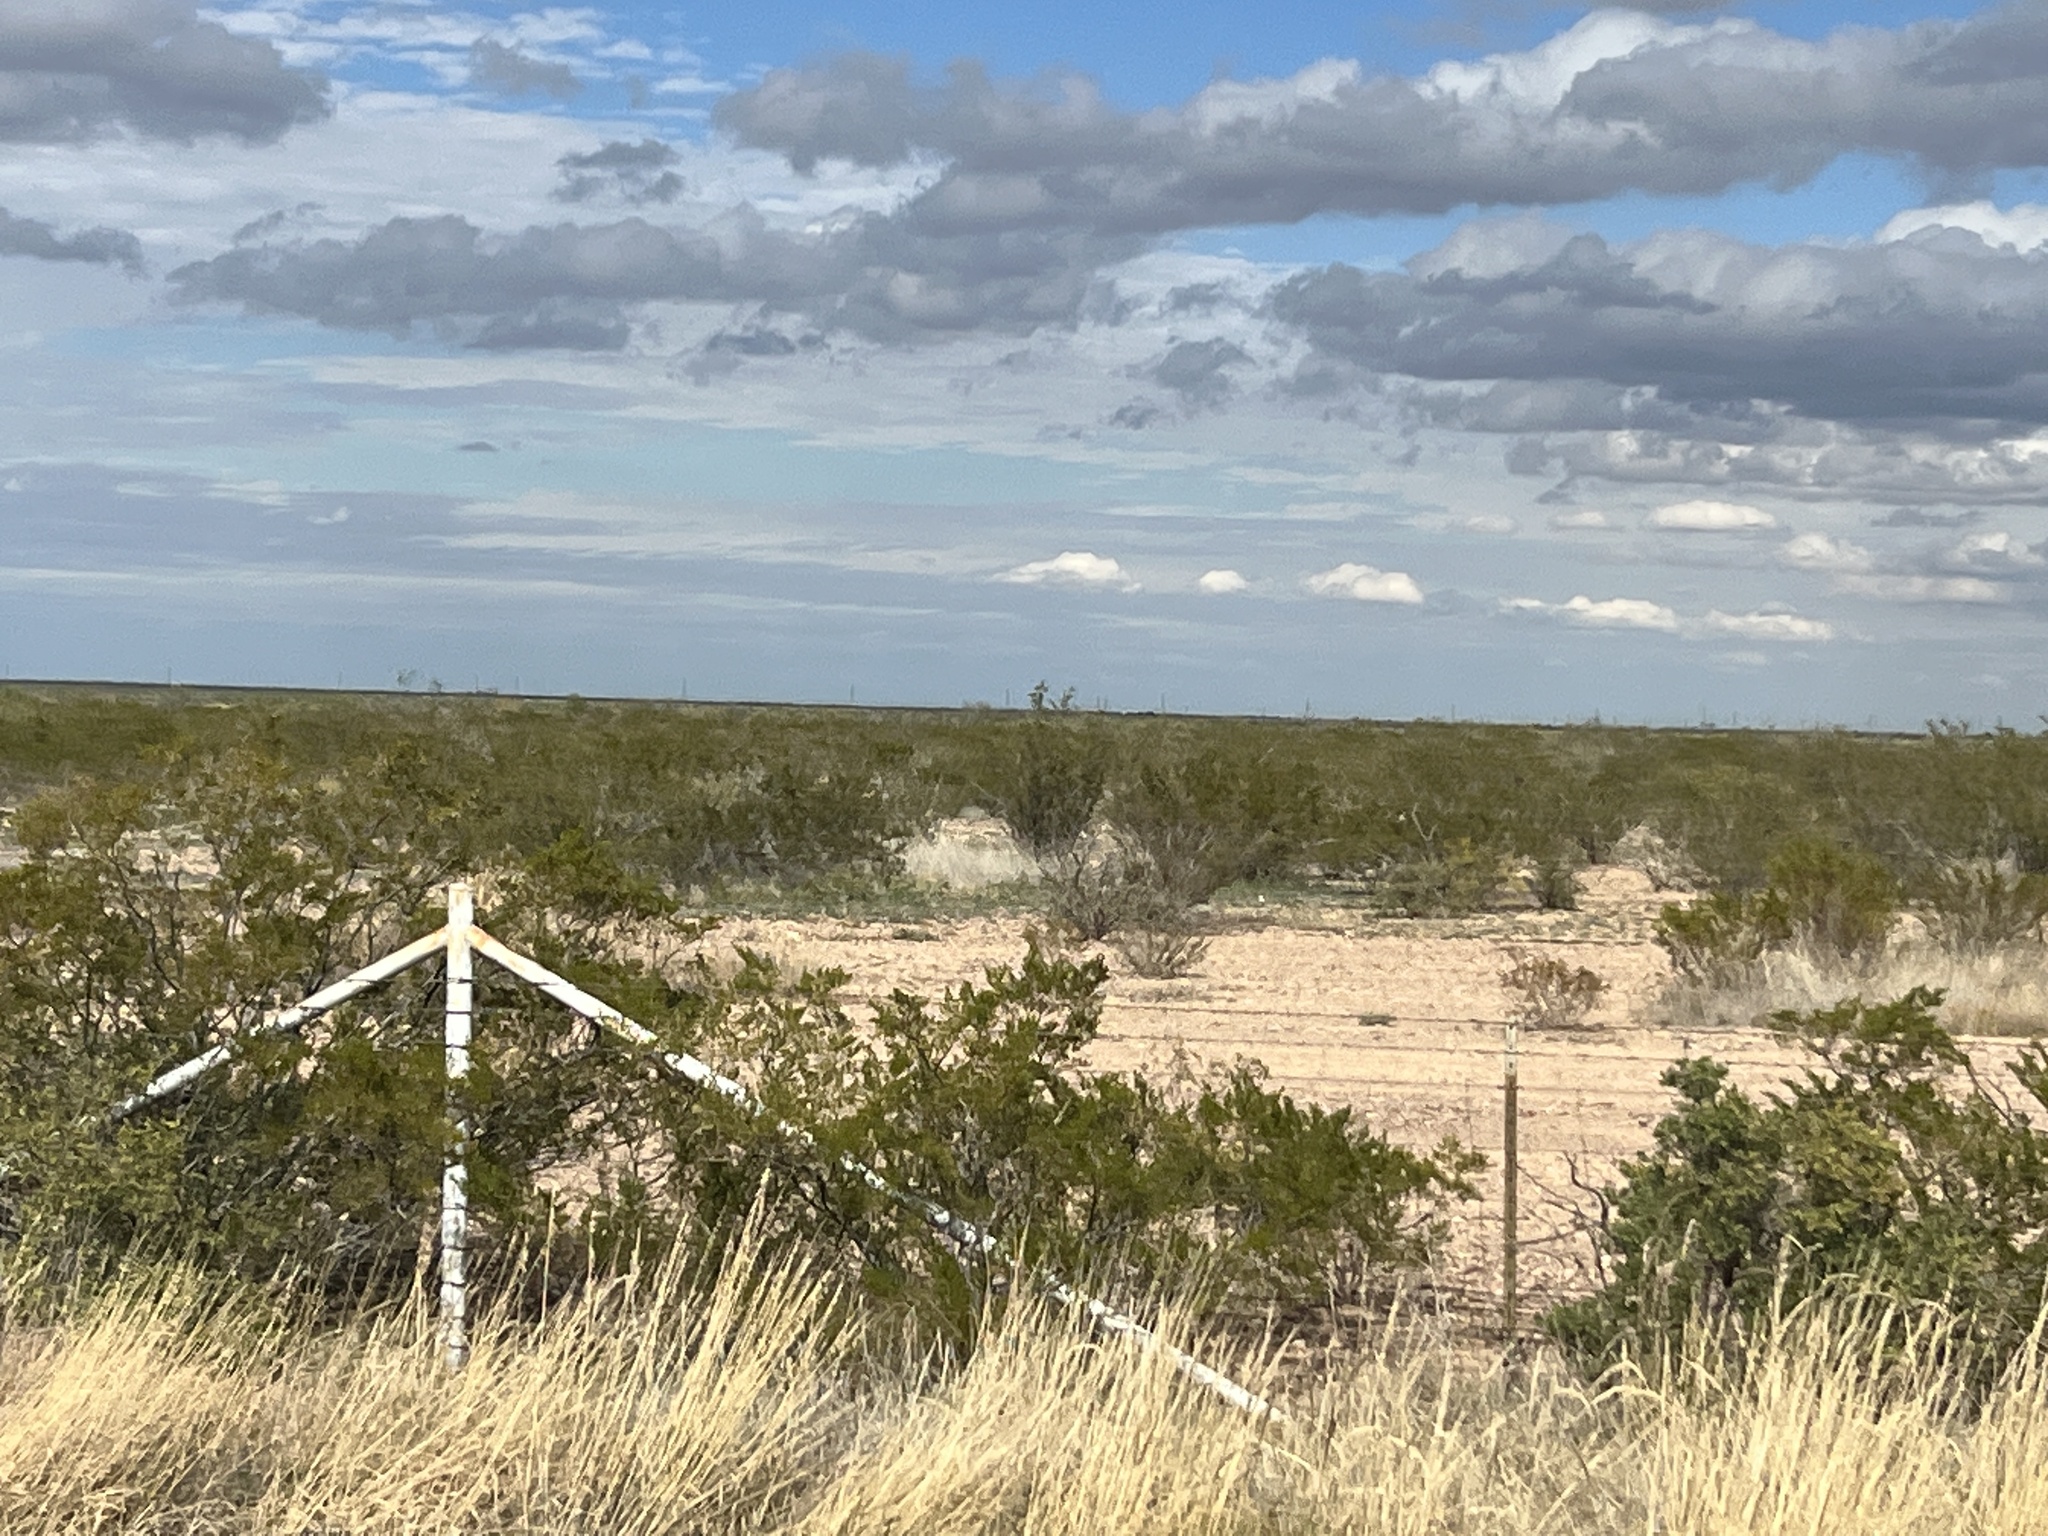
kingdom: Plantae
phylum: Tracheophyta
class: Magnoliopsida
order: Zygophyllales
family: Zygophyllaceae
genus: Larrea
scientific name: Larrea tridentata
